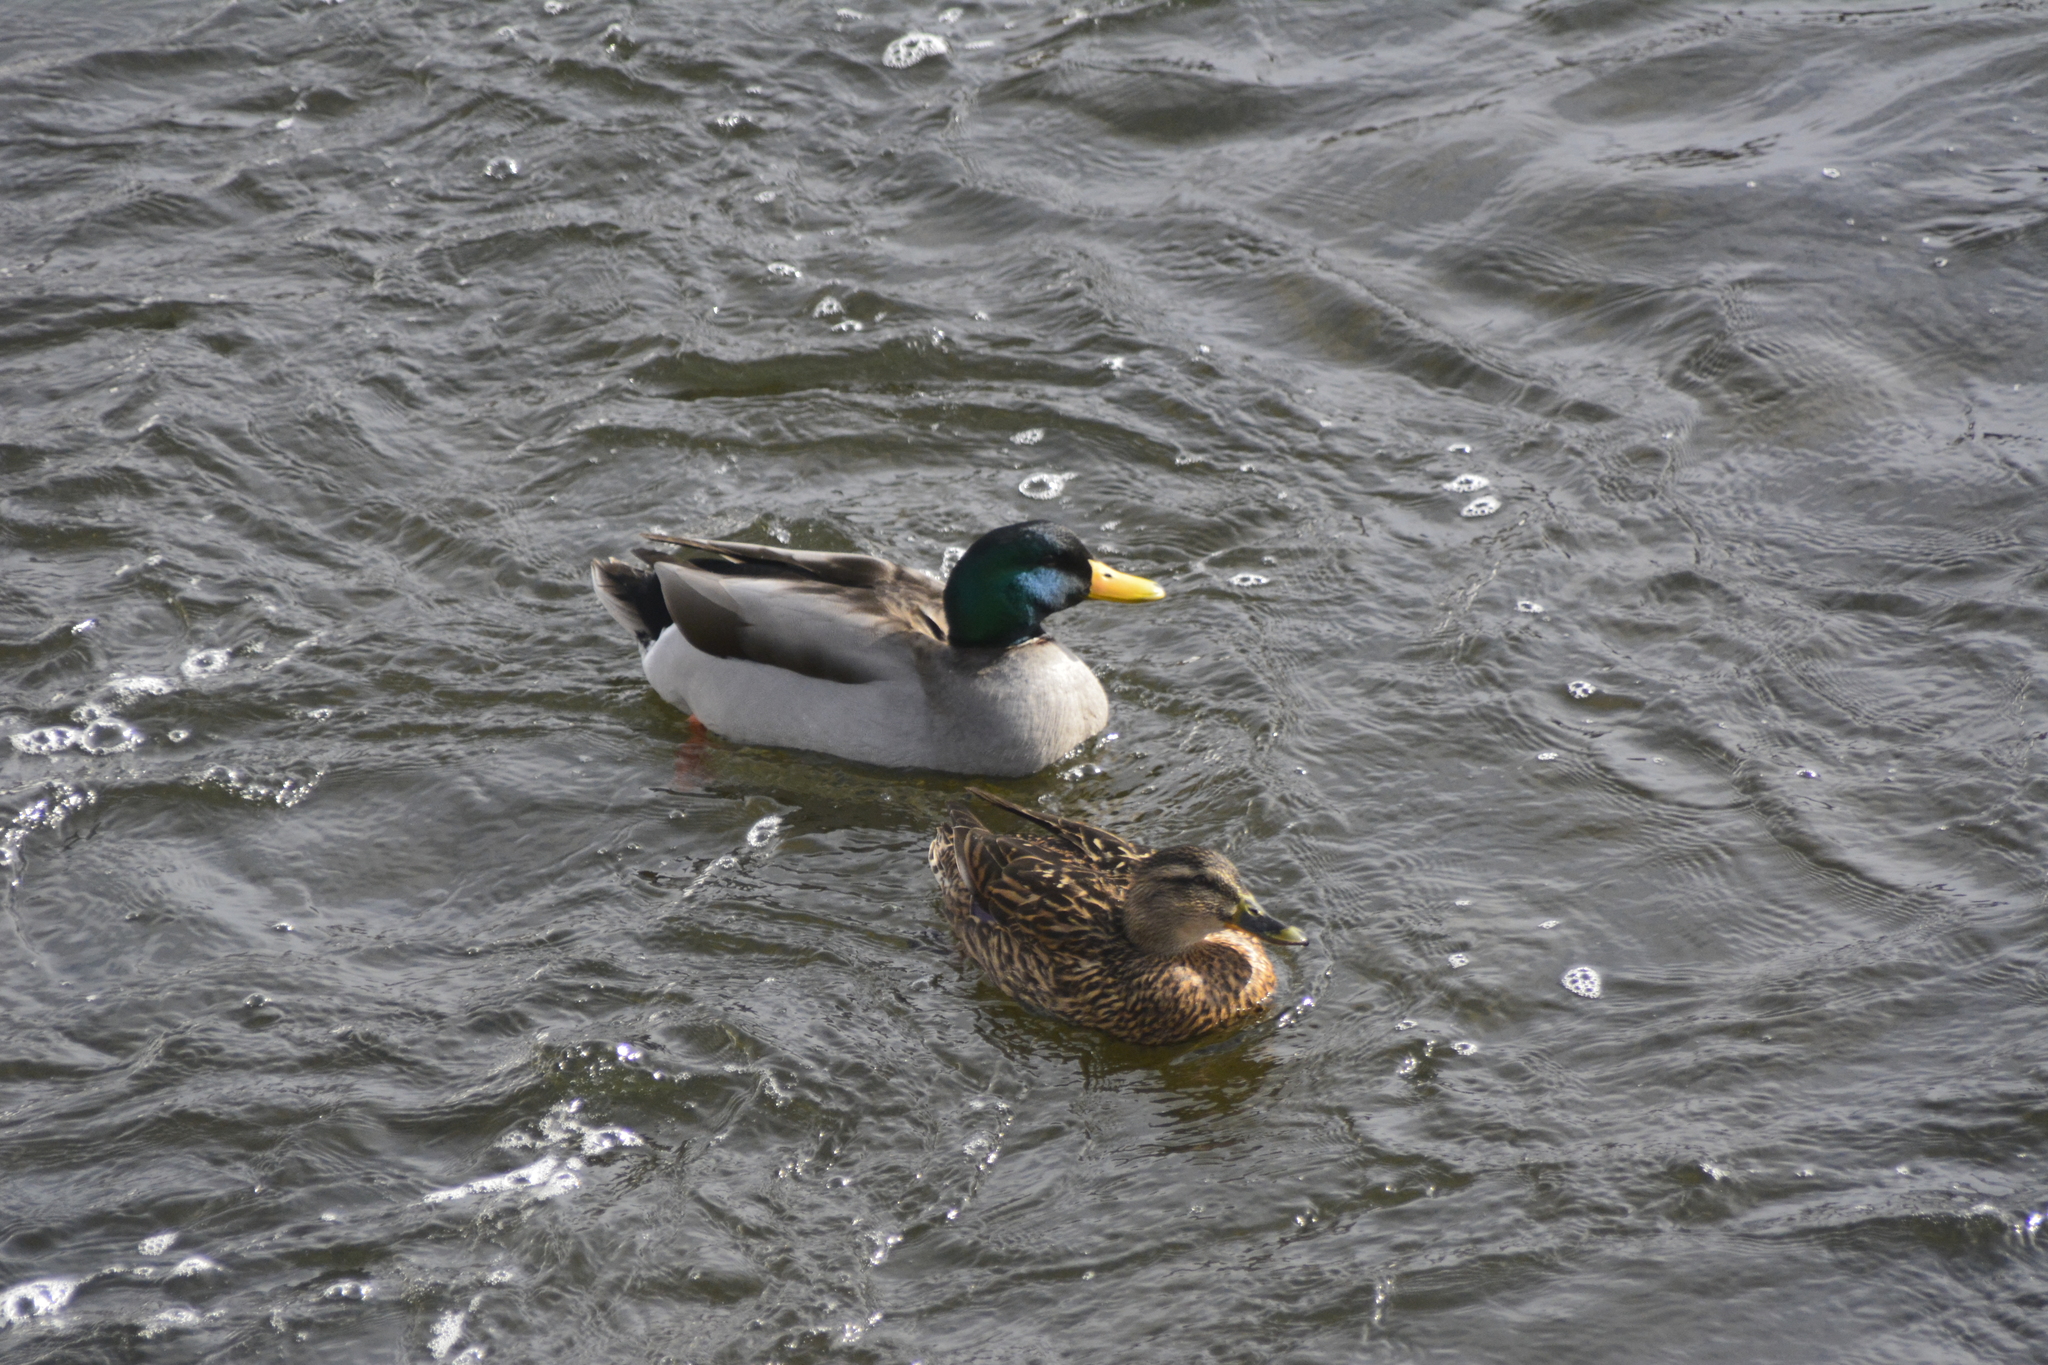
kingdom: Animalia
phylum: Chordata
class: Aves
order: Anseriformes
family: Anatidae
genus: Anas
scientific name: Anas platyrhynchos
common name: Mallard
